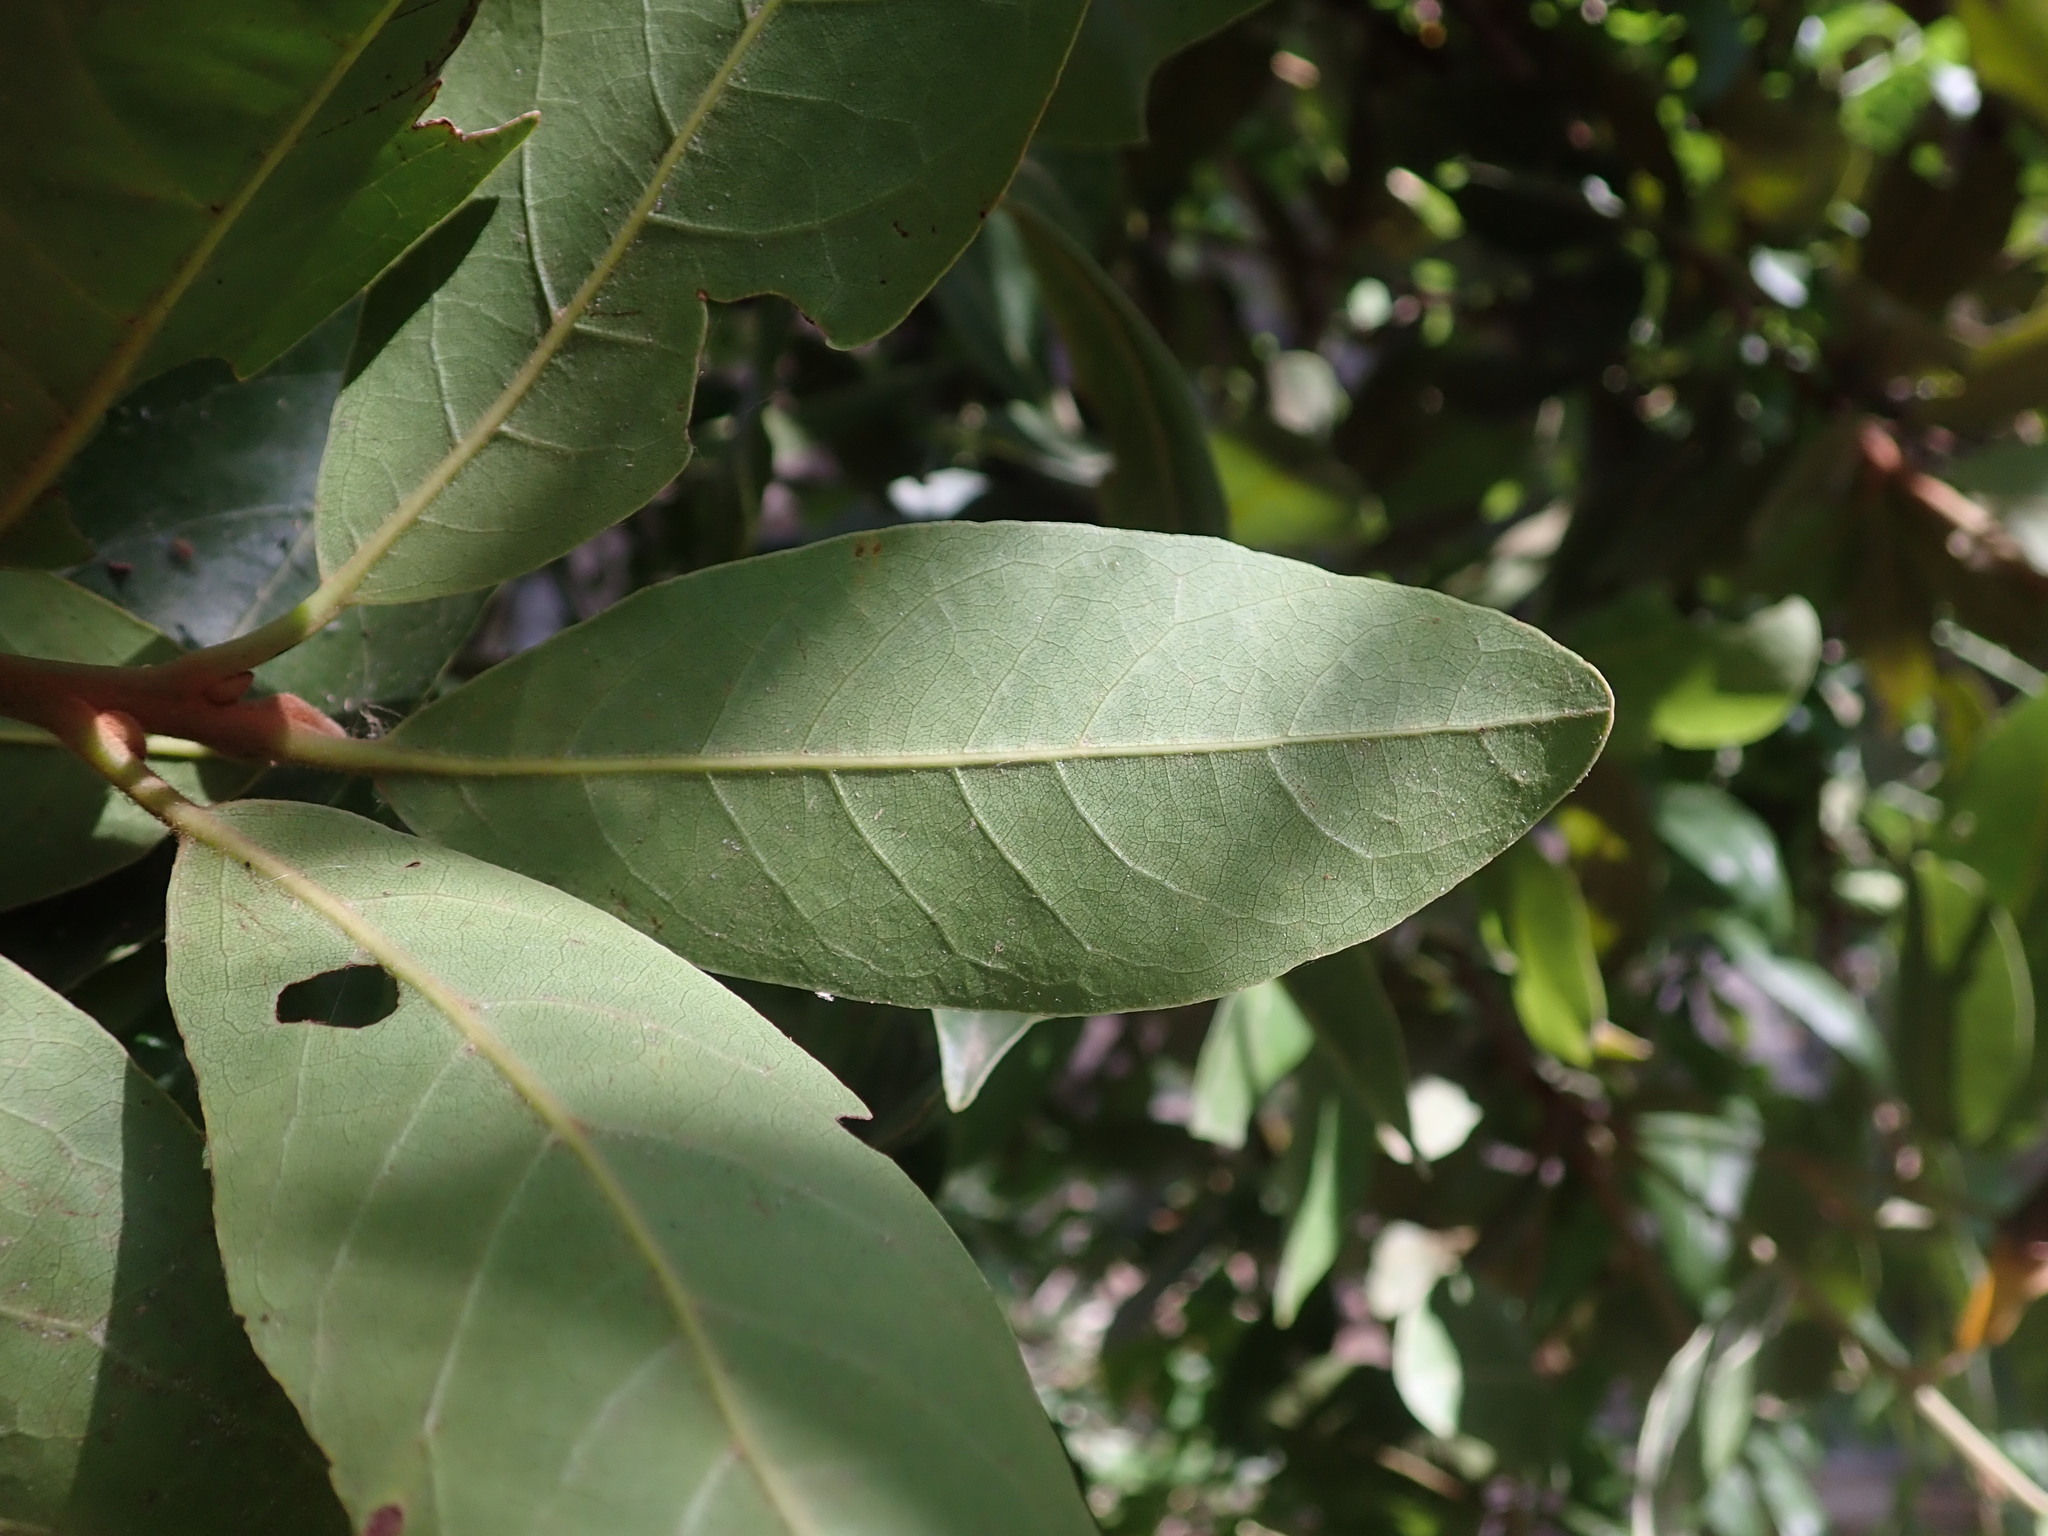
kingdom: Plantae
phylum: Tracheophyta
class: Magnoliopsida
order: Laurales
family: Lauraceae
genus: Laurus
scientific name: Laurus novocanariensis
